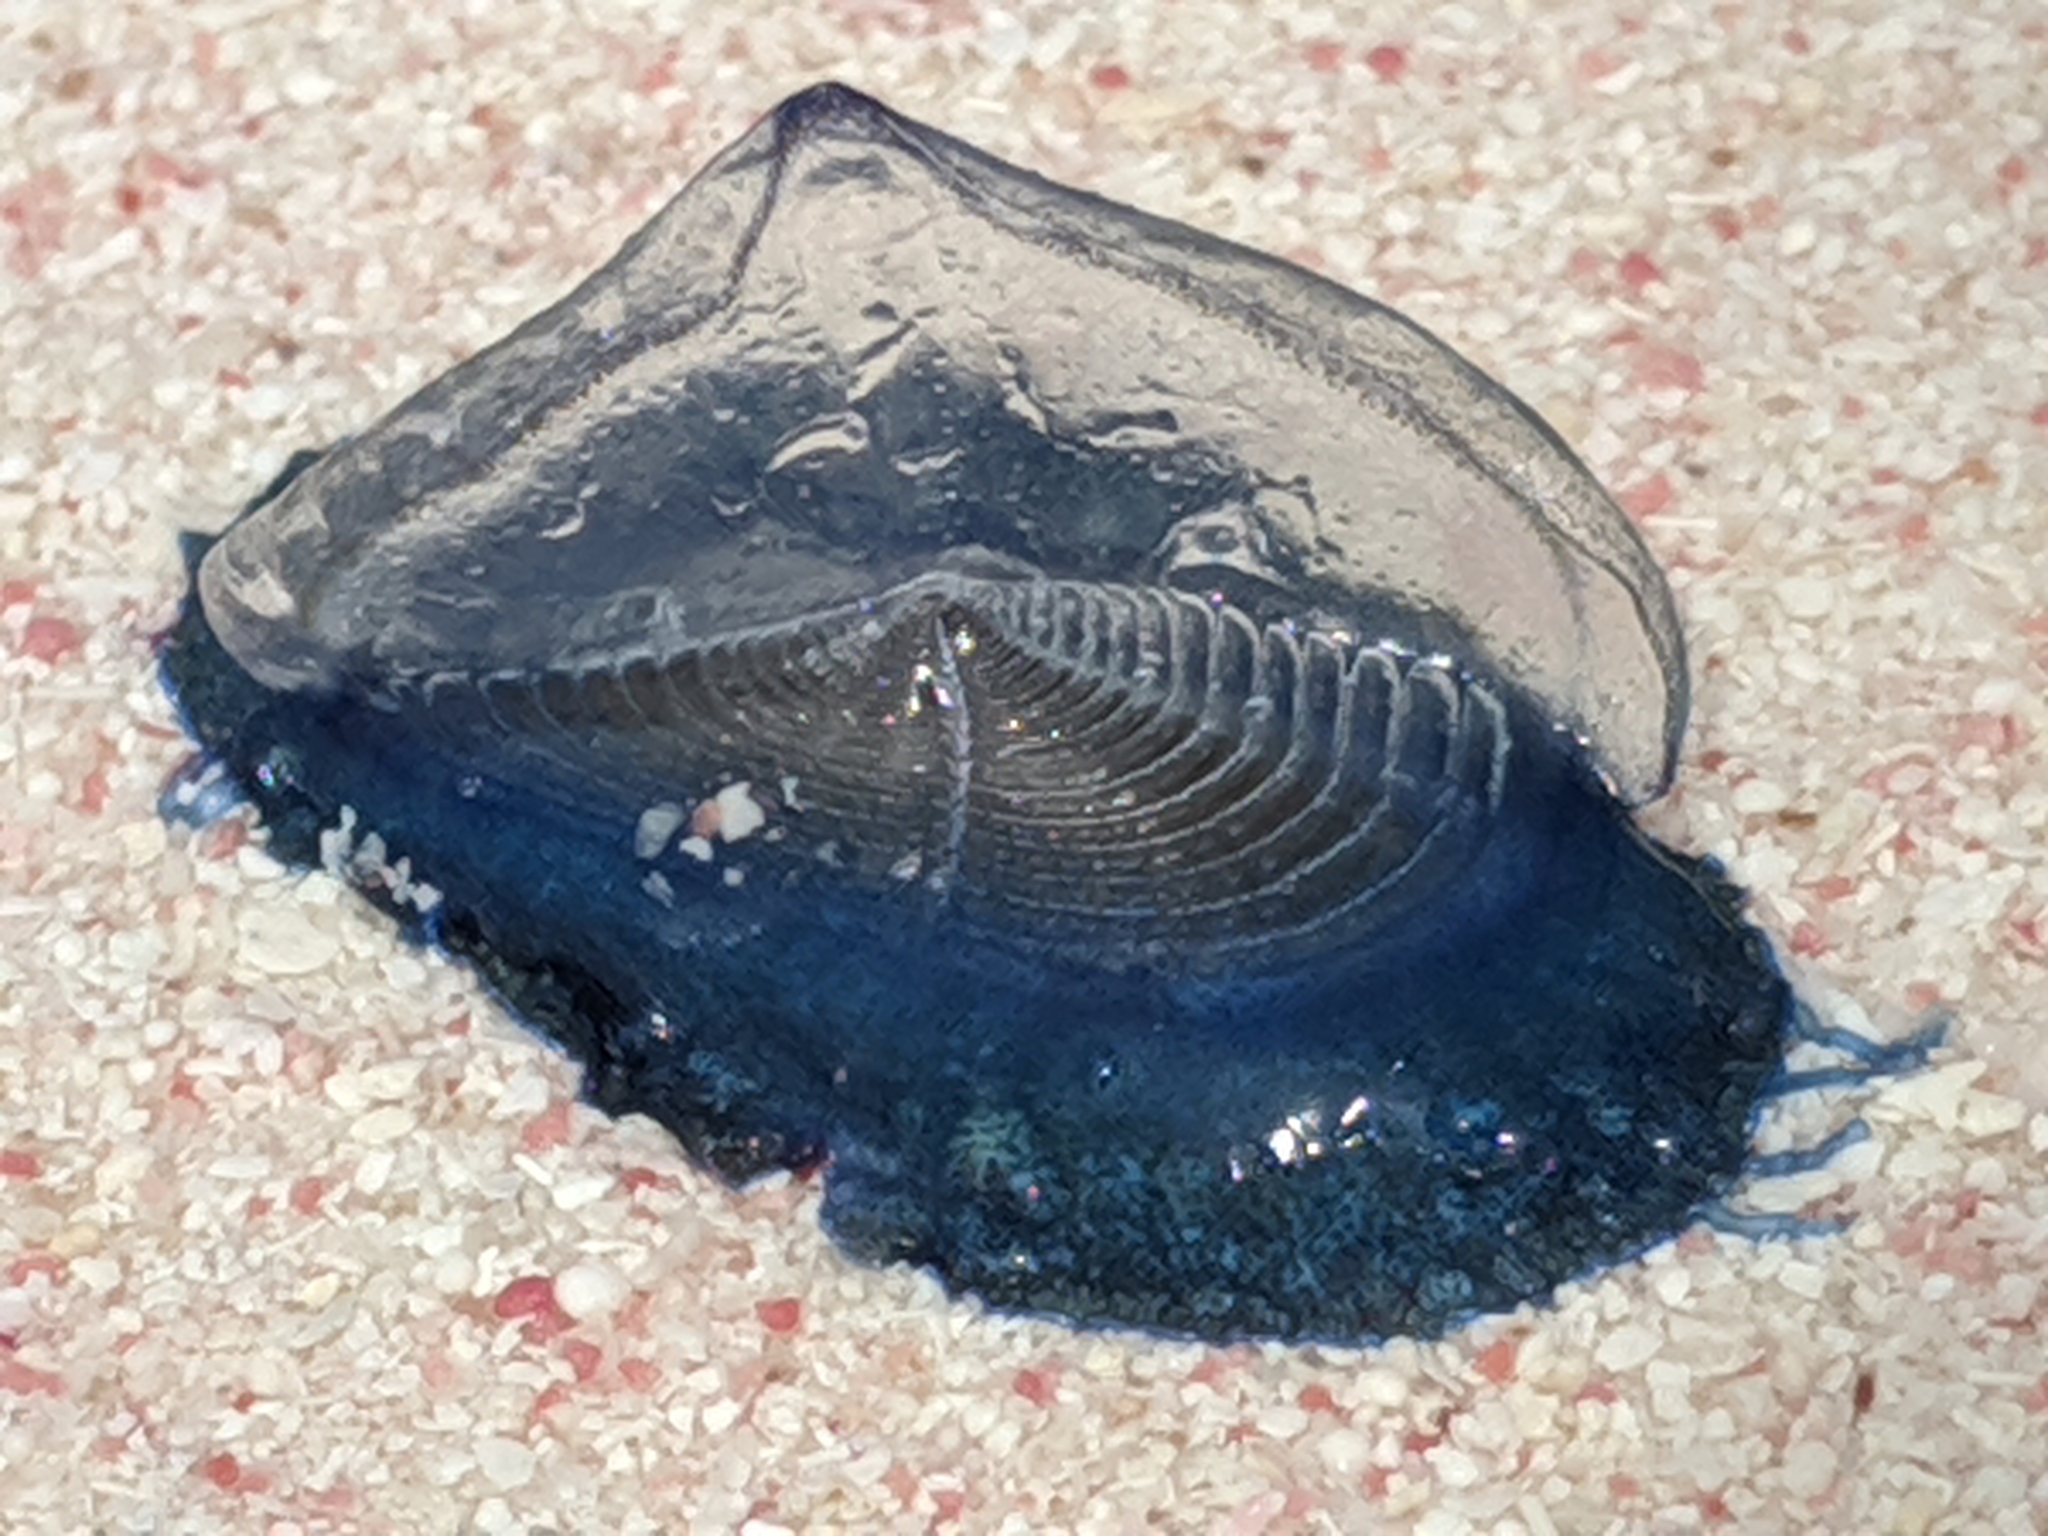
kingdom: Animalia
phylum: Cnidaria
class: Hydrozoa
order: Anthoathecata
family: Porpitidae
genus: Velella
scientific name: Velella velella
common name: By-the-wind-sailor
